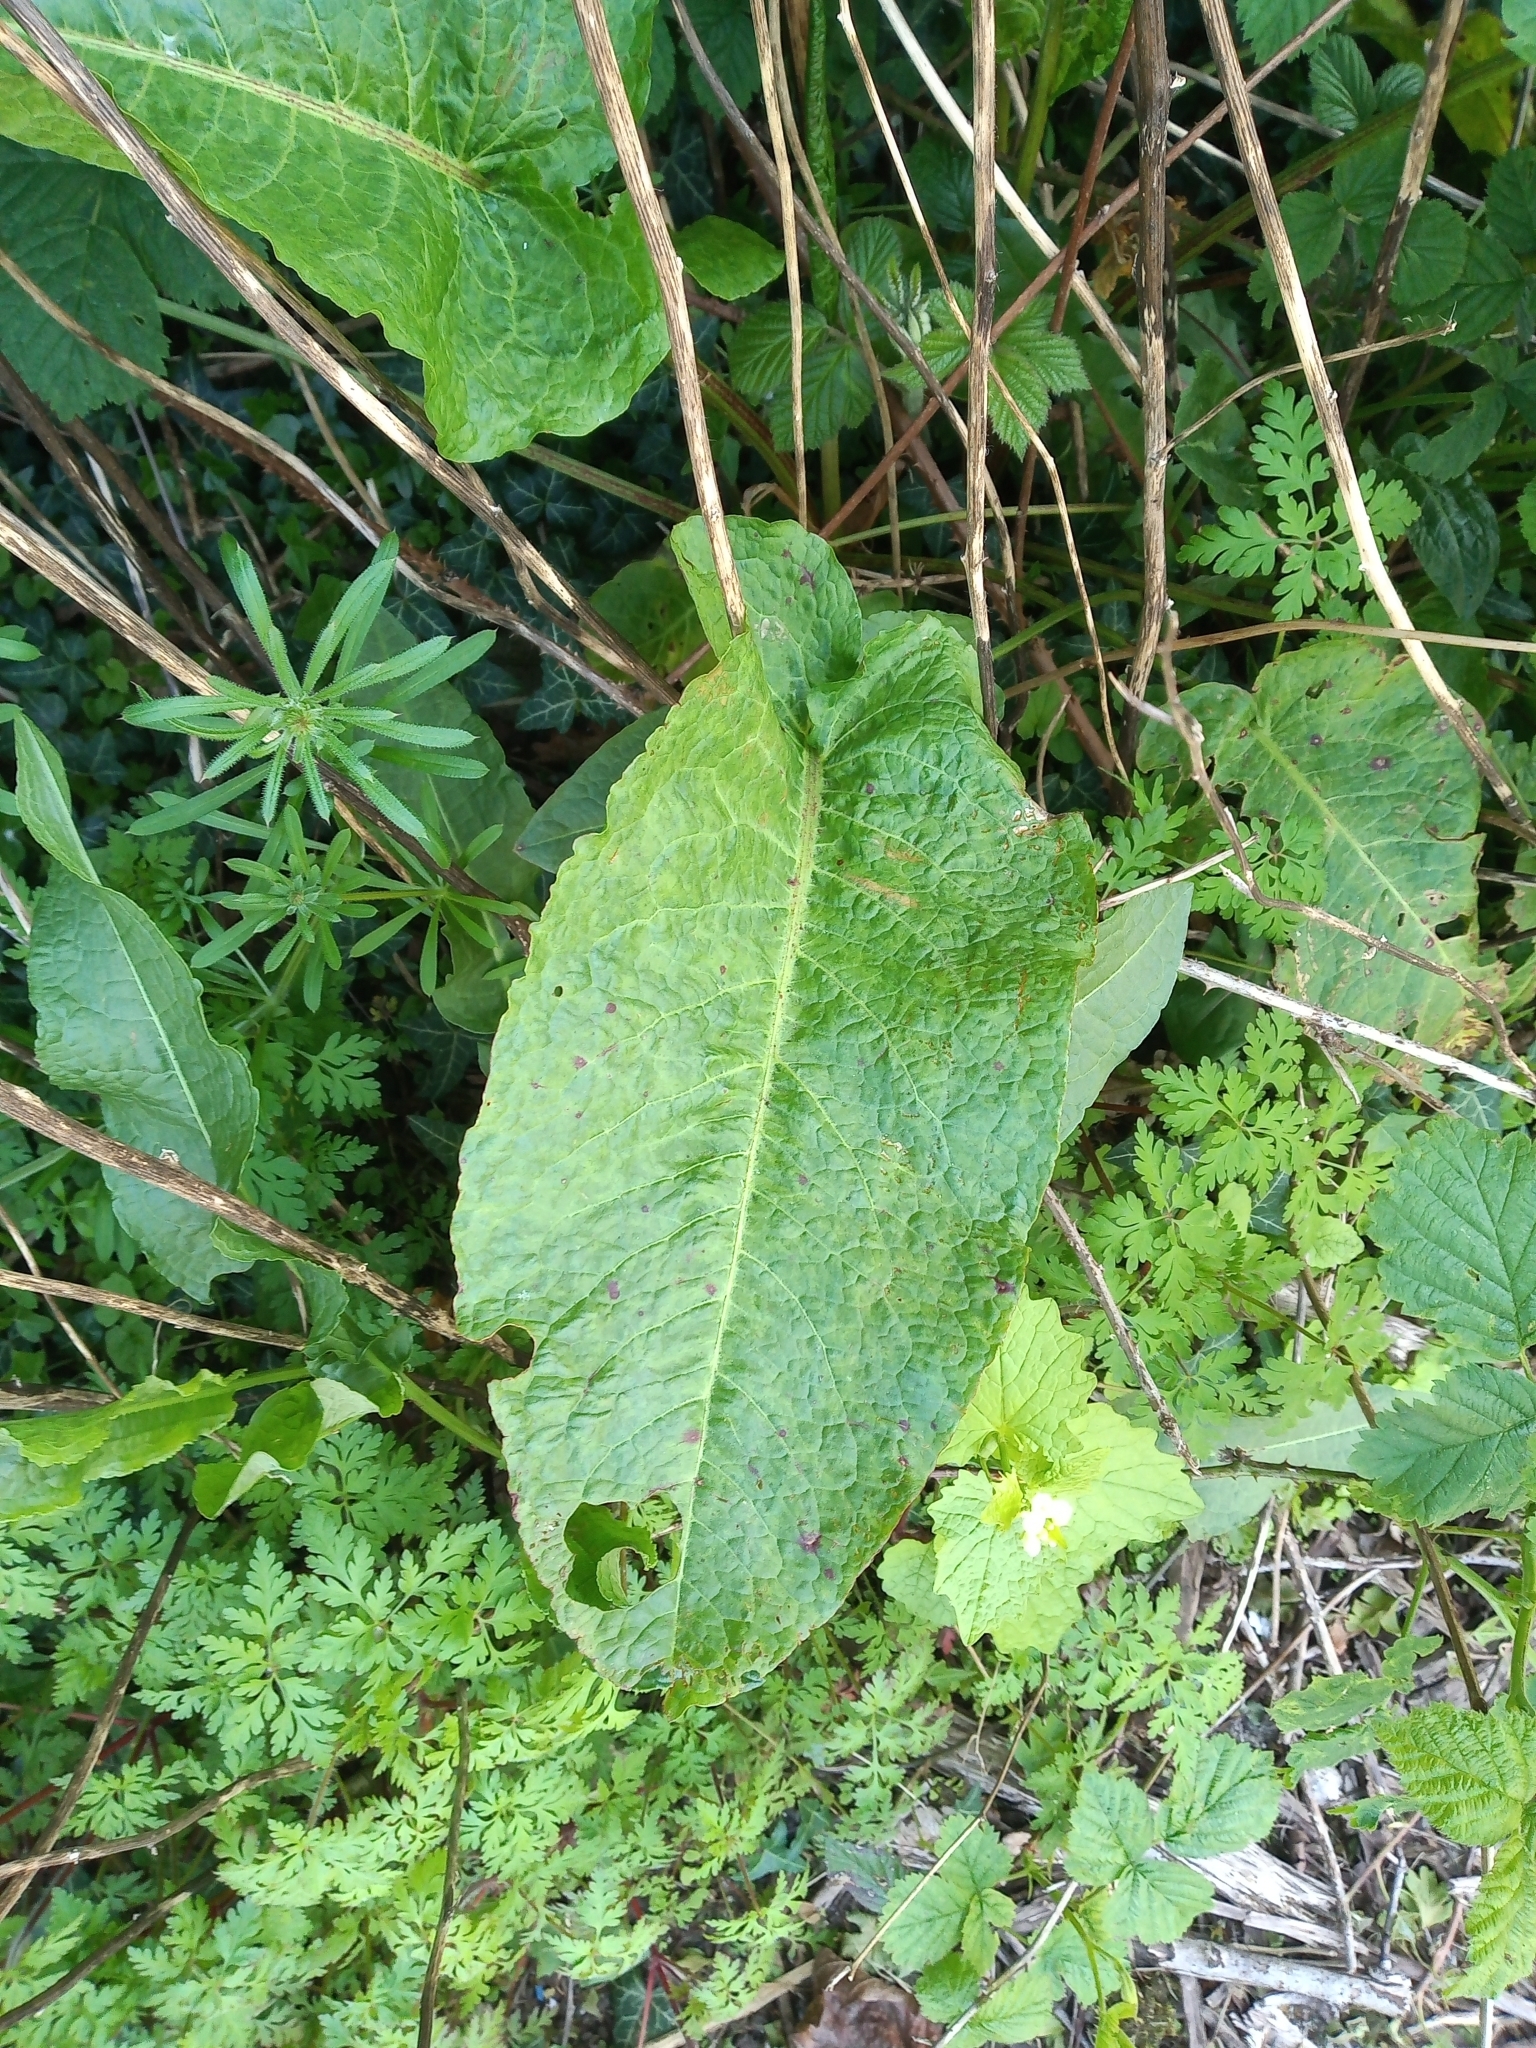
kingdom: Plantae
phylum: Tracheophyta
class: Magnoliopsida
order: Caryophyllales
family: Polygonaceae
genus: Rumex
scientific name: Rumex obtusifolius
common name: Bitter dock
